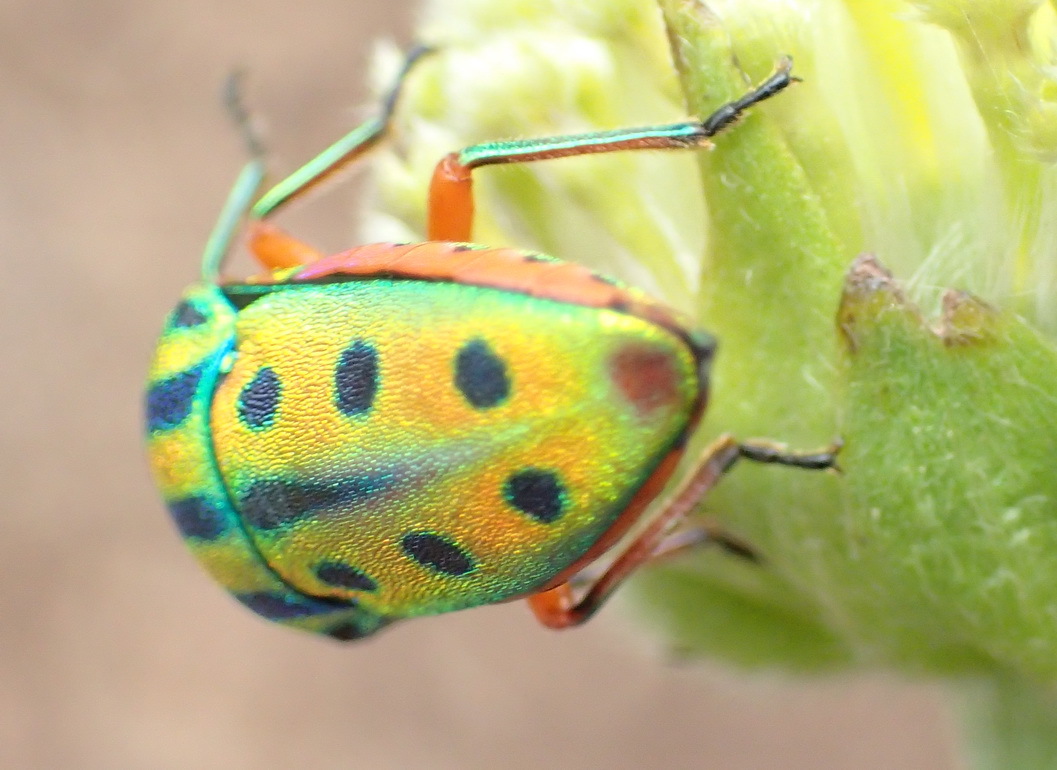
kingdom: Animalia
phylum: Arthropoda
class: Insecta
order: Hemiptera
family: Scutelleridae
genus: Calidea
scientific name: Calidea
